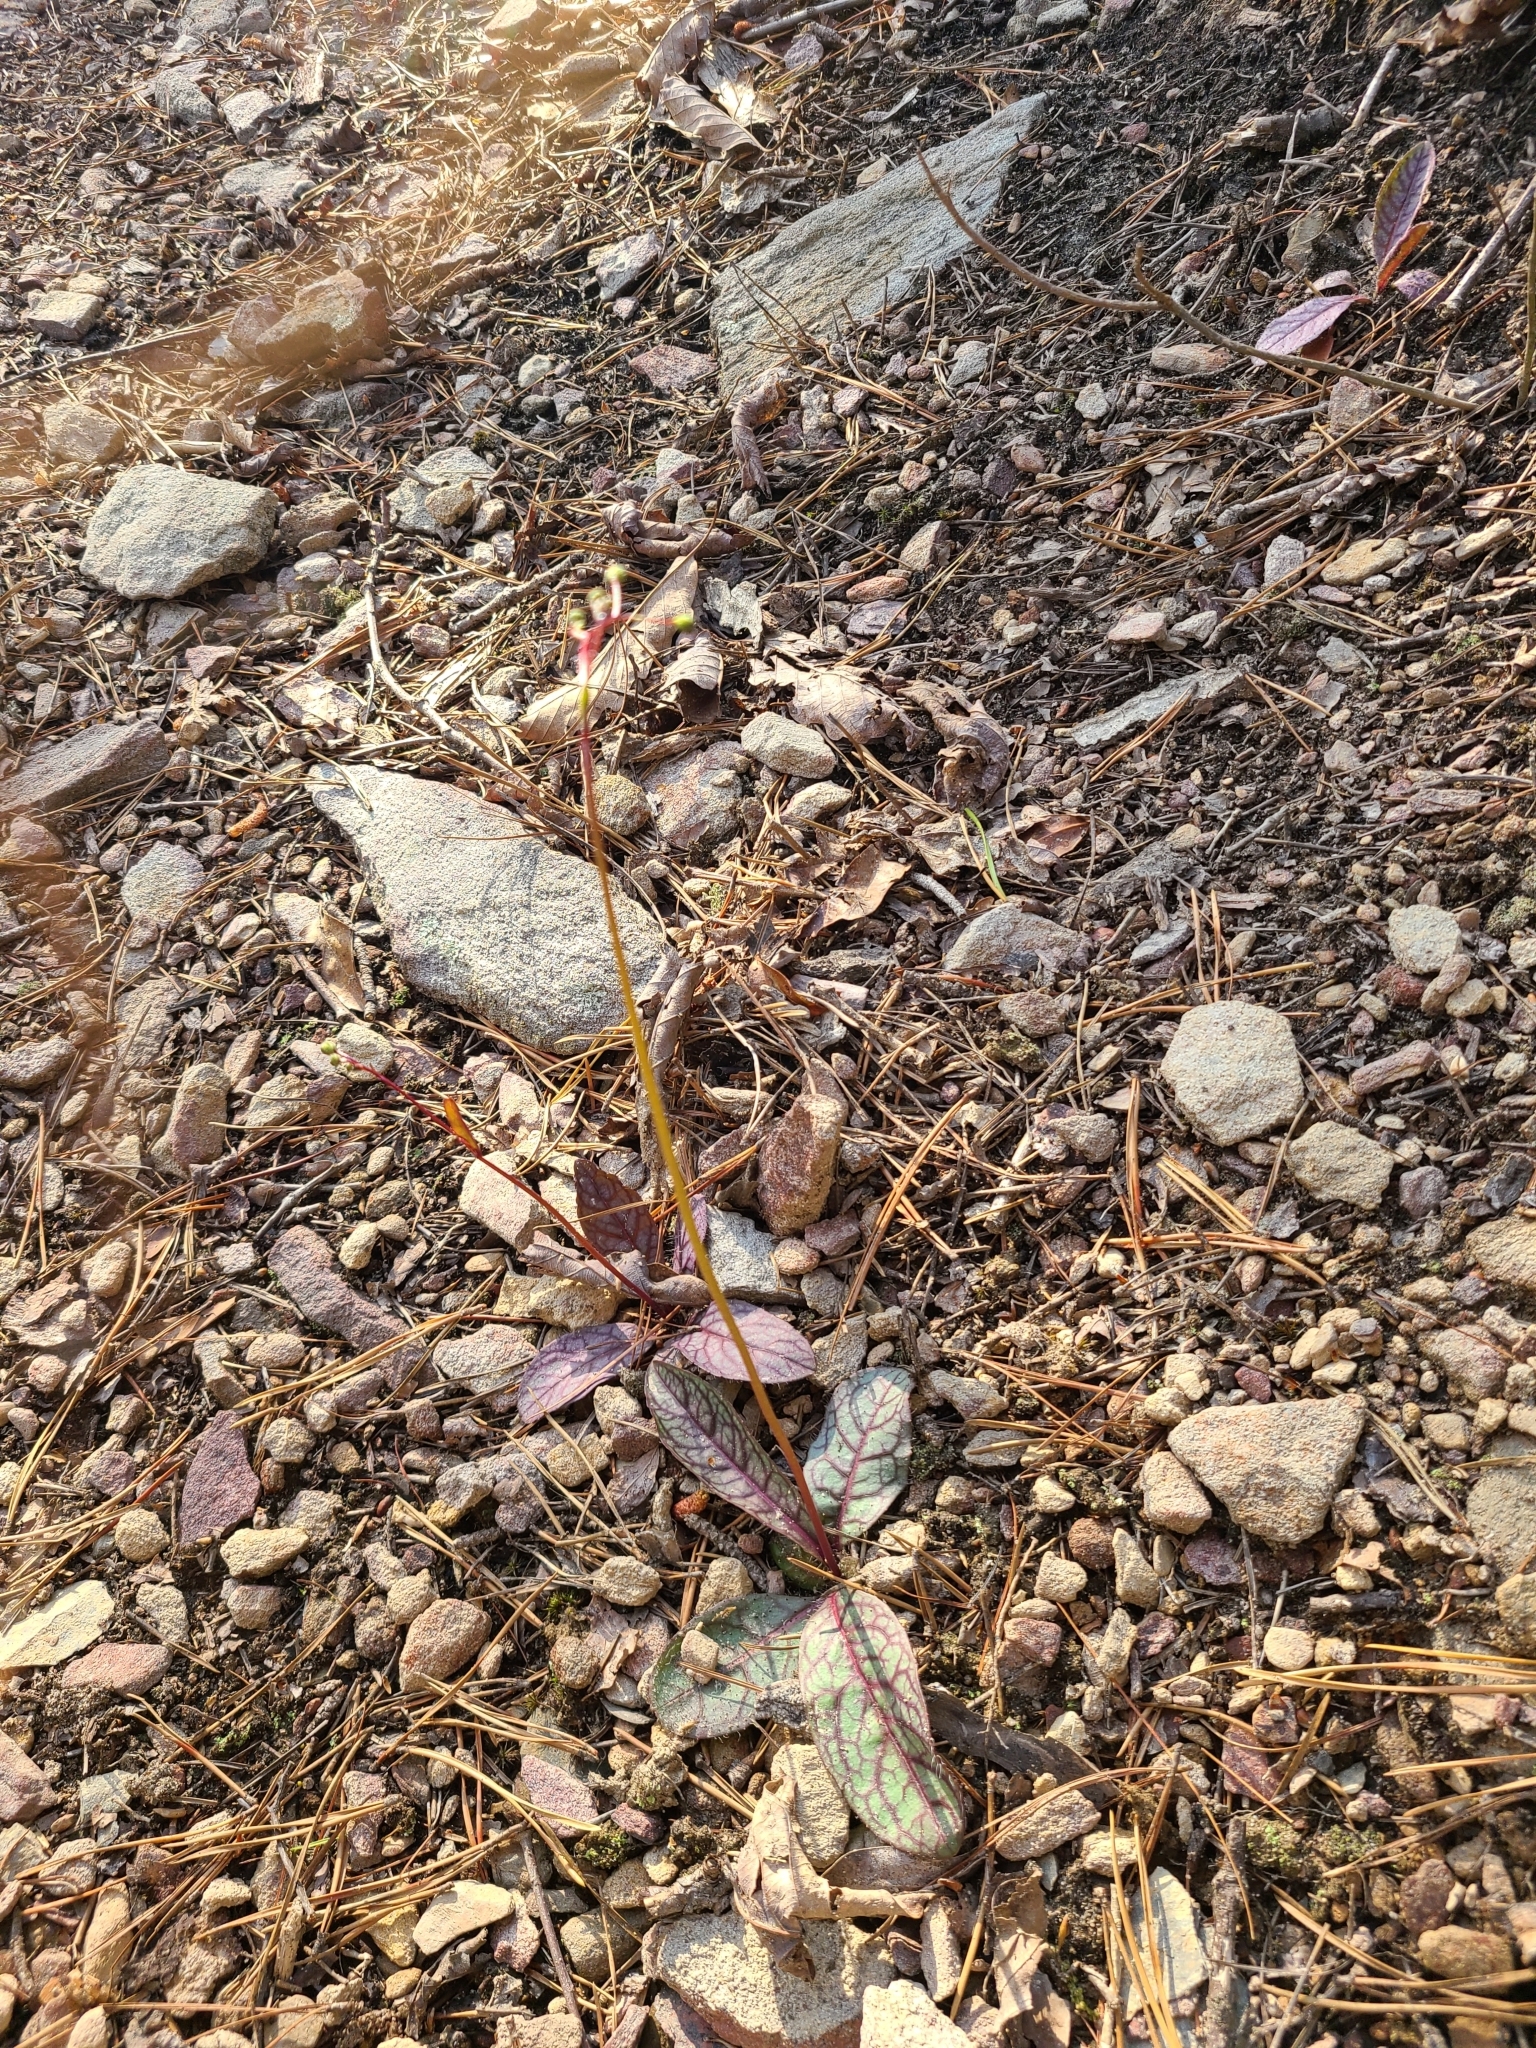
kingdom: Plantae
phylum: Tracheophyta
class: Magnoliopsida
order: Asterales
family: Asteraceae
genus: Hieracium
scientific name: Hieracium venosum
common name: Rattlesnake hawkweed
